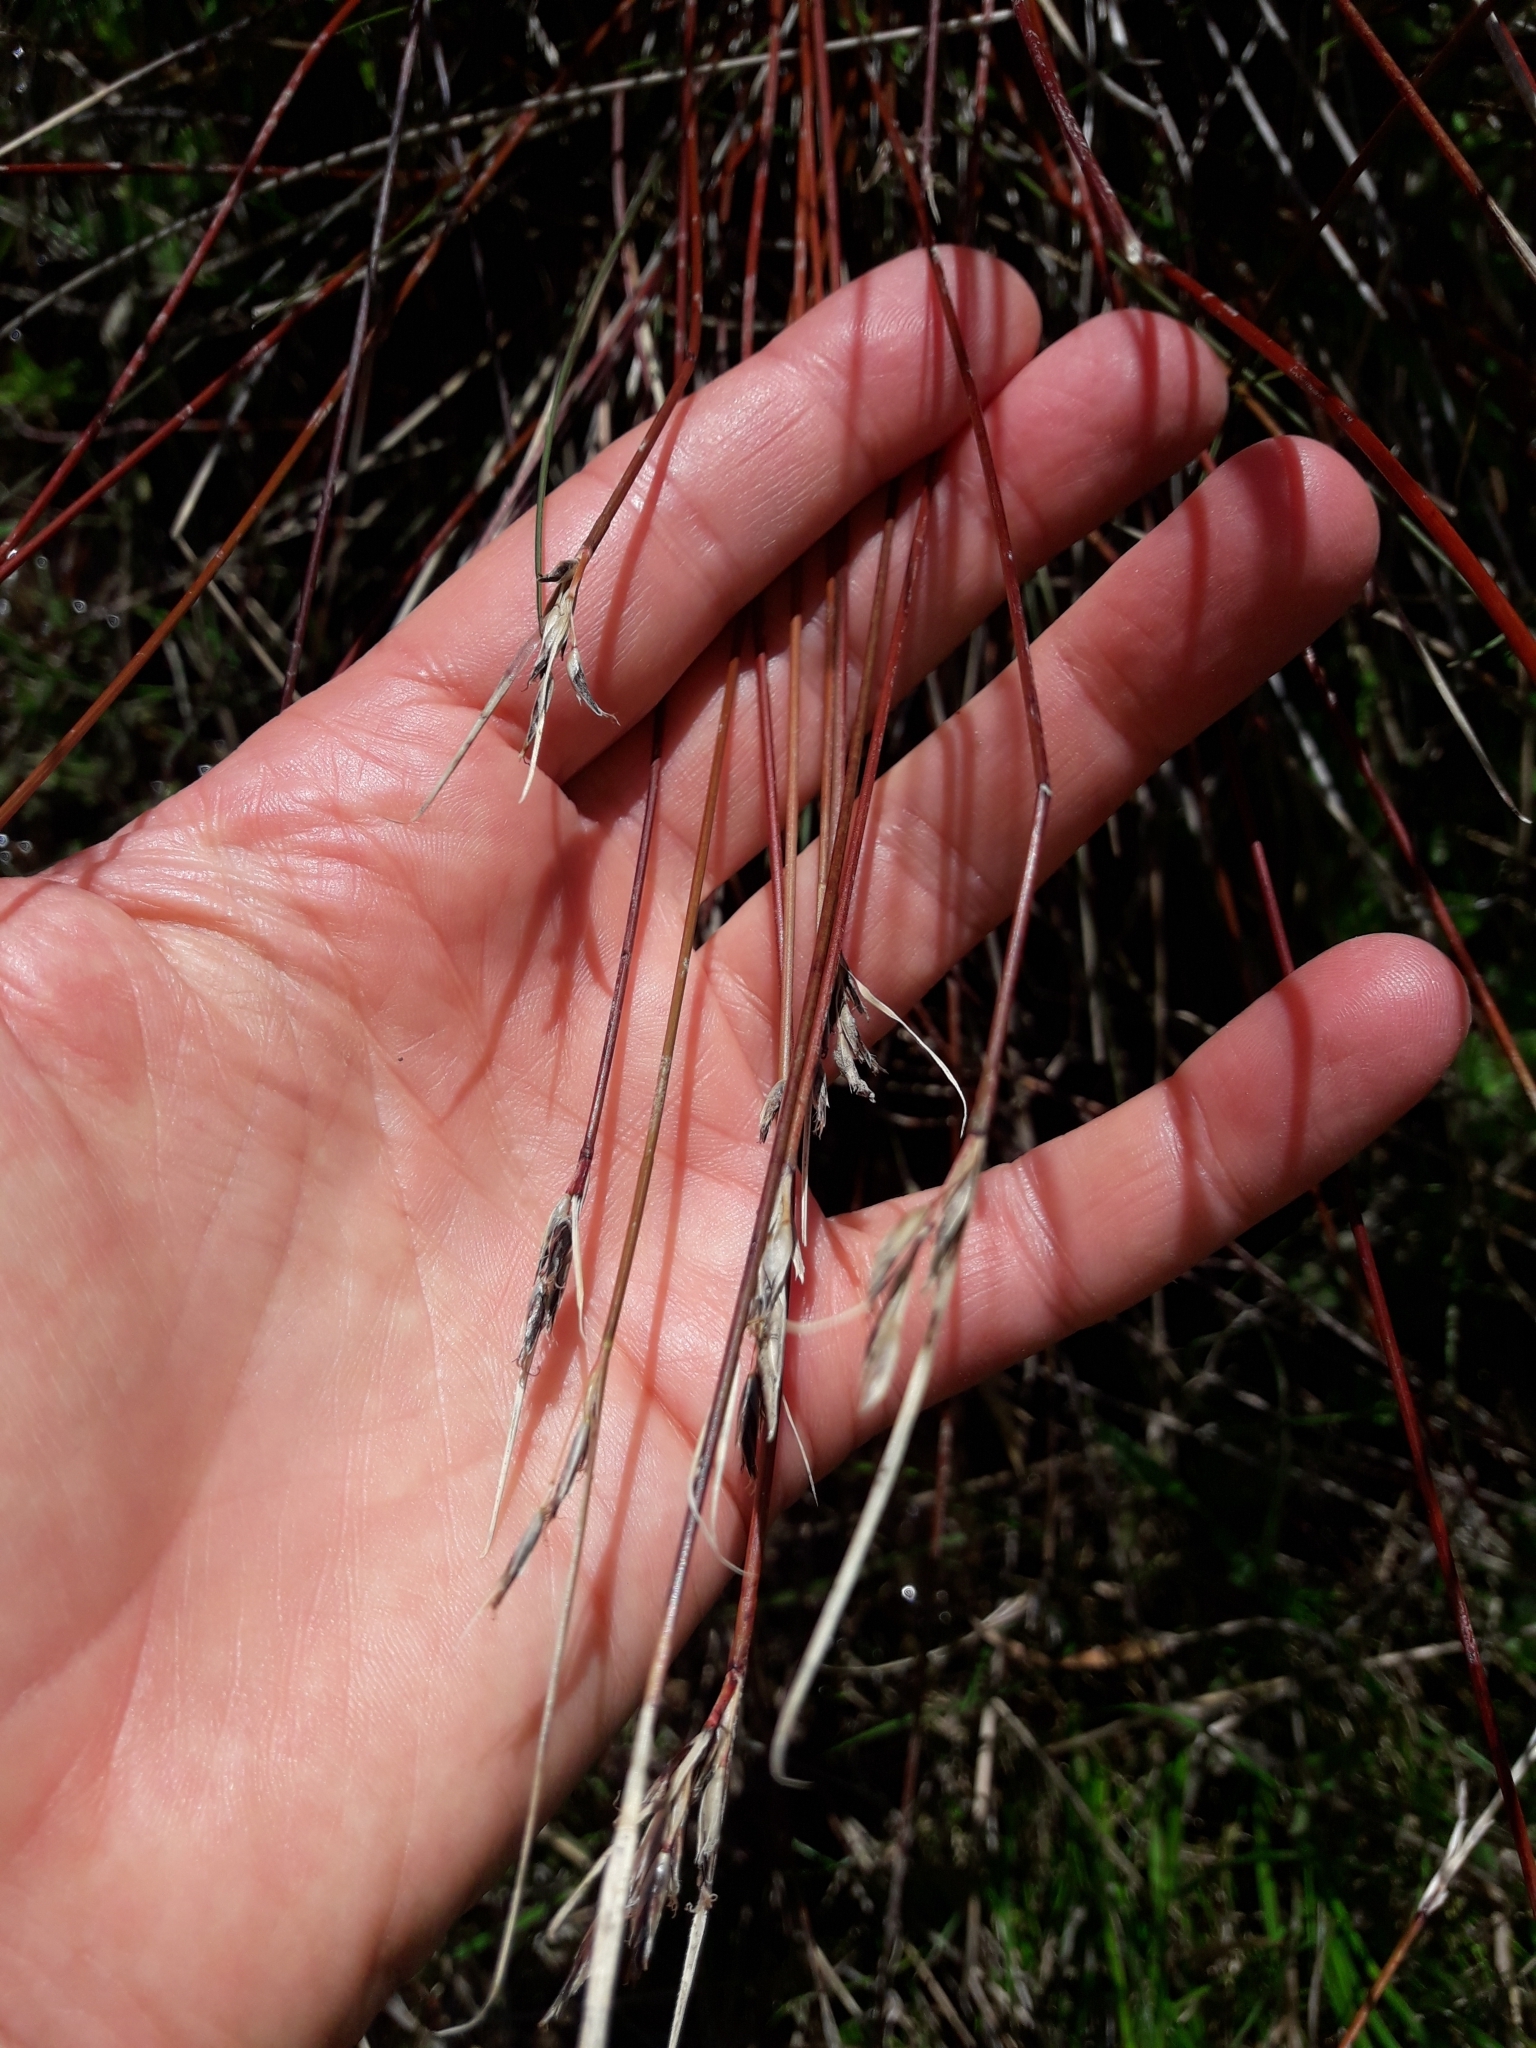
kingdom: Plantae
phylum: Tracheophyta
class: Liliopsida
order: Poales
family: Cyperaceae
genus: Schoenus
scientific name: Schoenus pauciflorus
